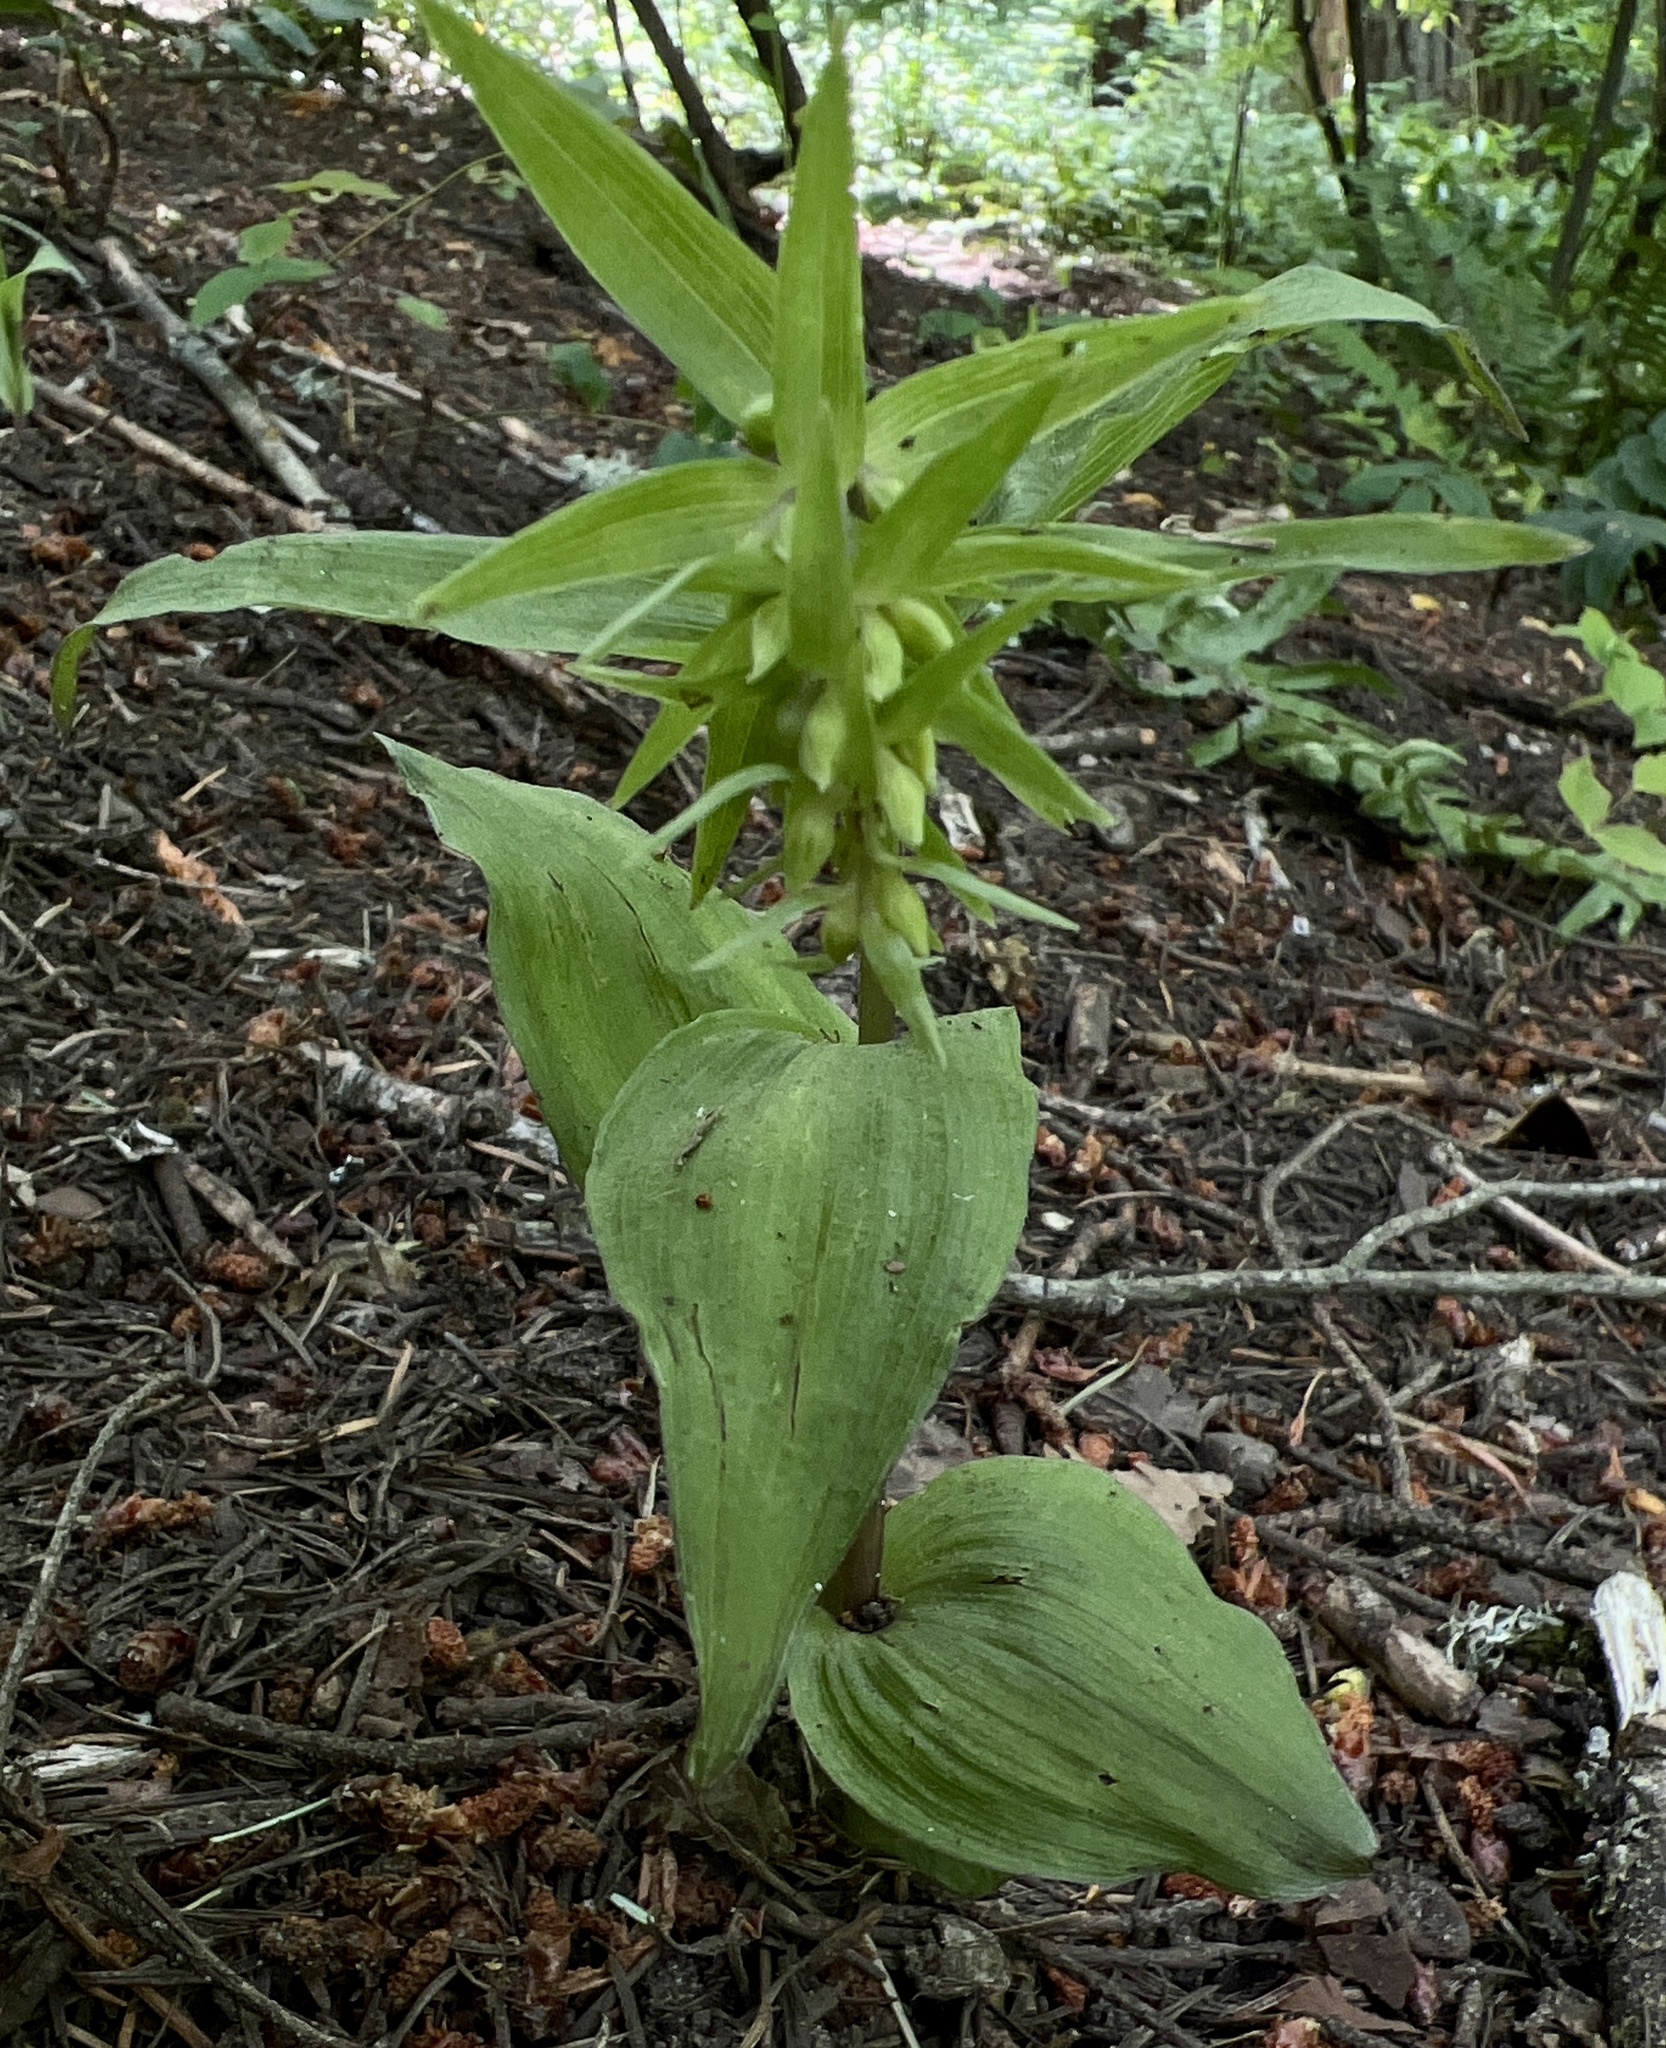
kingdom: Plantae
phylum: Tracheophyta
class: Liliopsida
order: Asparagales
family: Orchidaceae
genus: Epipactis
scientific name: Epipactis helleborine
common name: Broad-leaved helleborine
